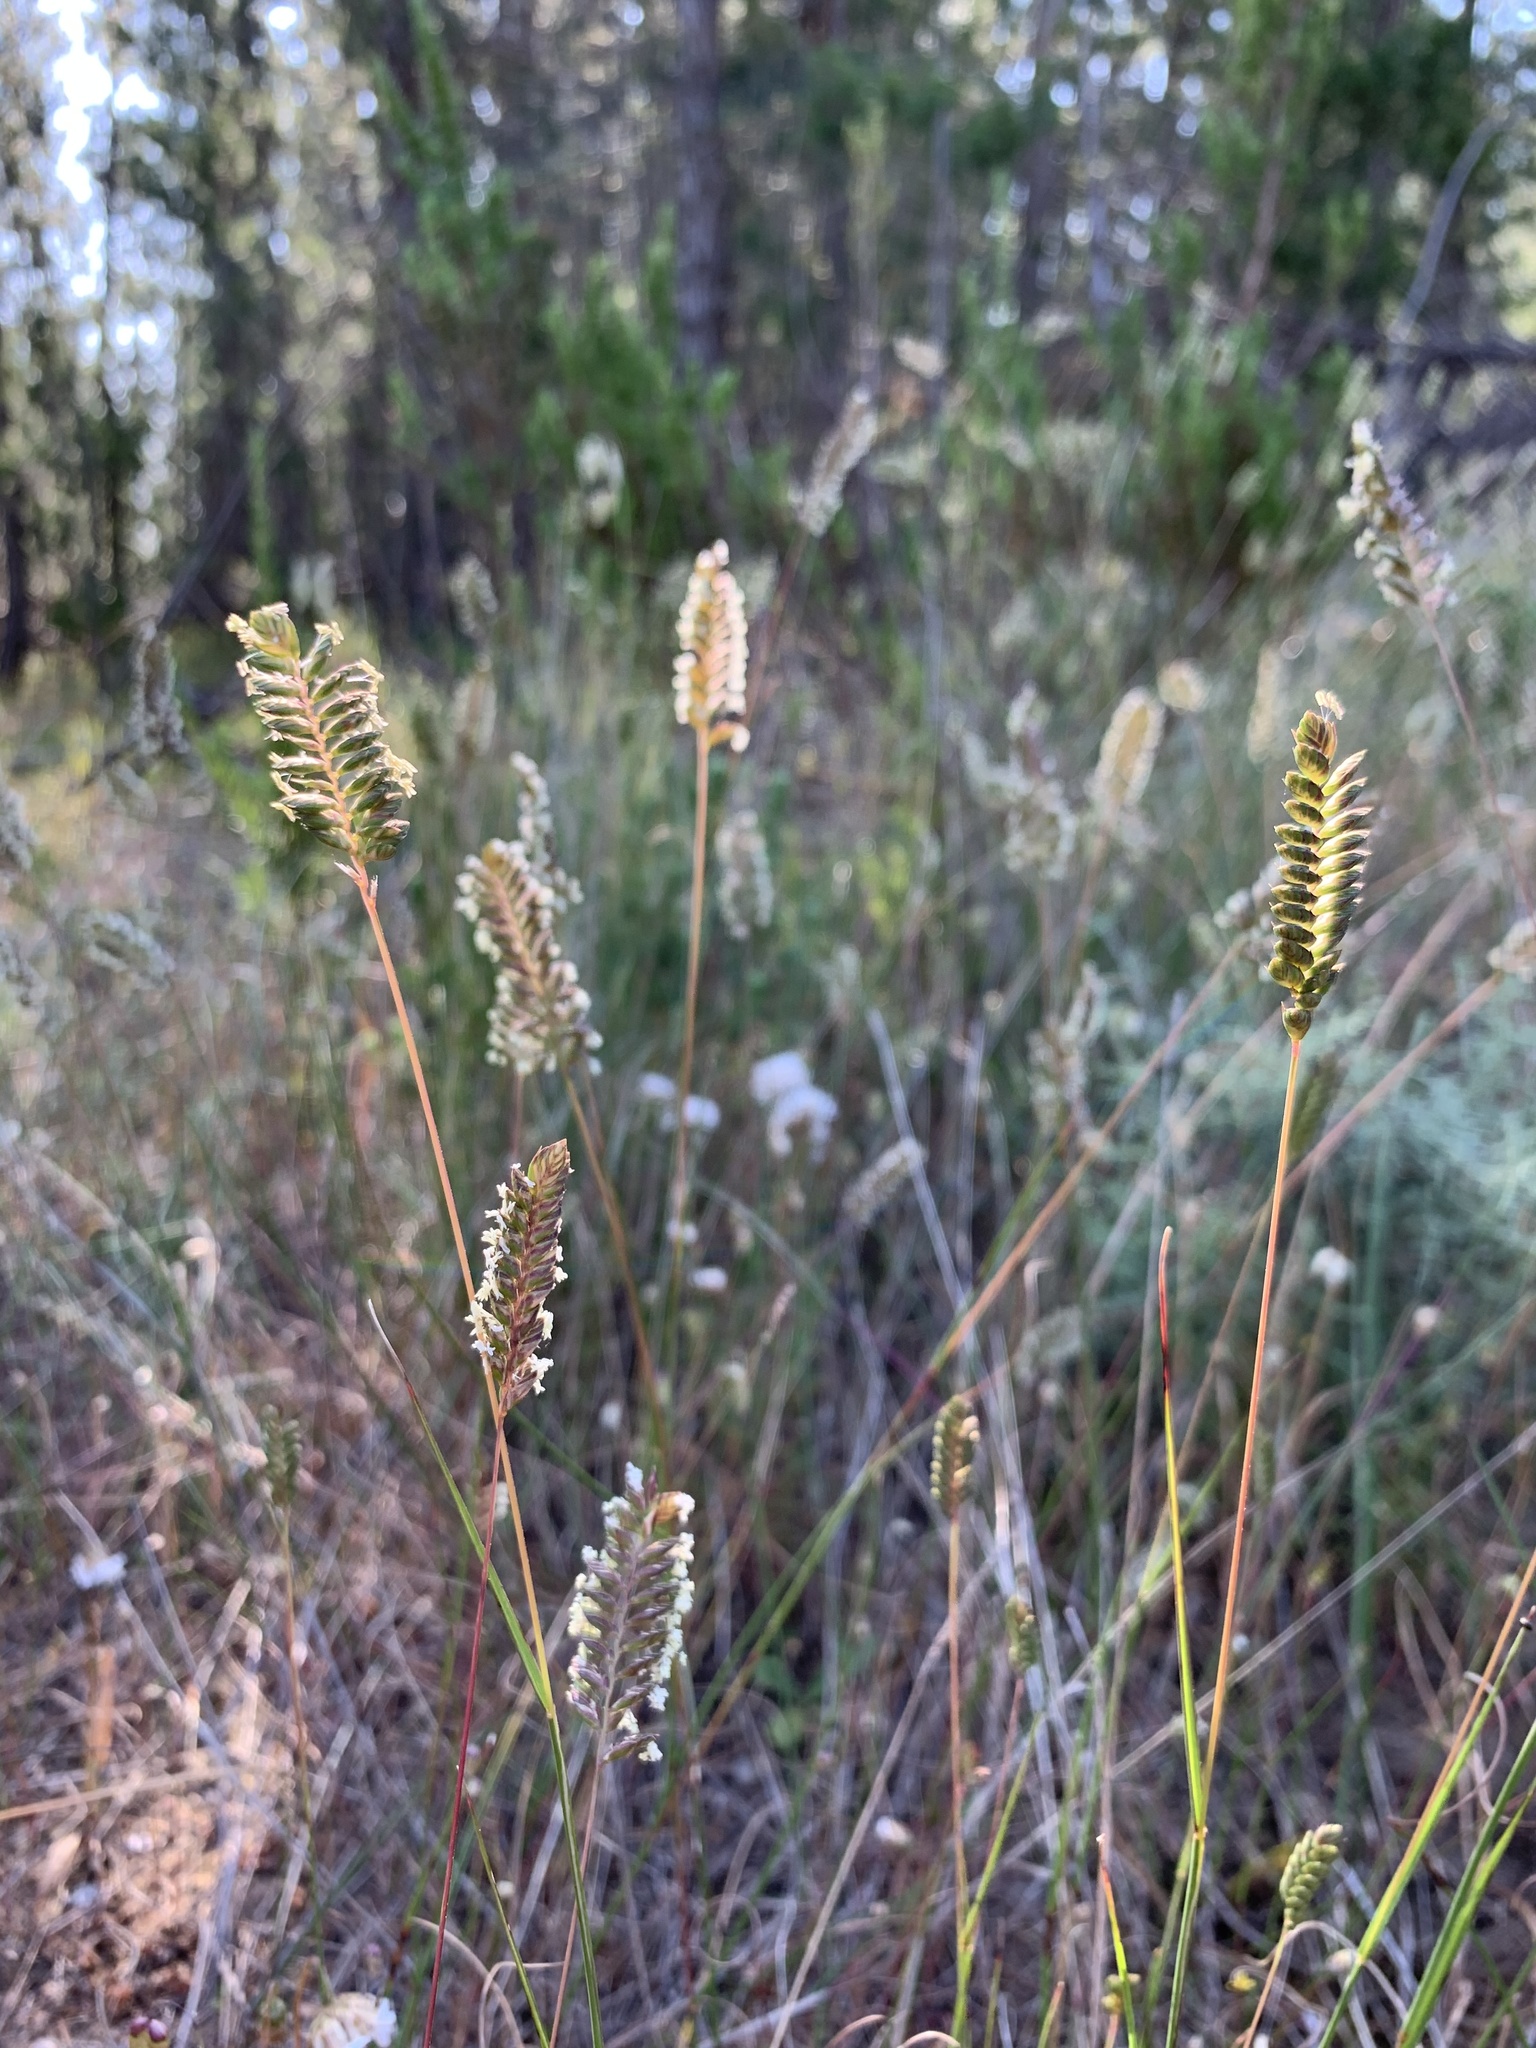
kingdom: Plantae
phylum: Tracheophyta
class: Liliopsida
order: Poales
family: Poaceae
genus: Tribolium
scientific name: Tribolium uniolae
